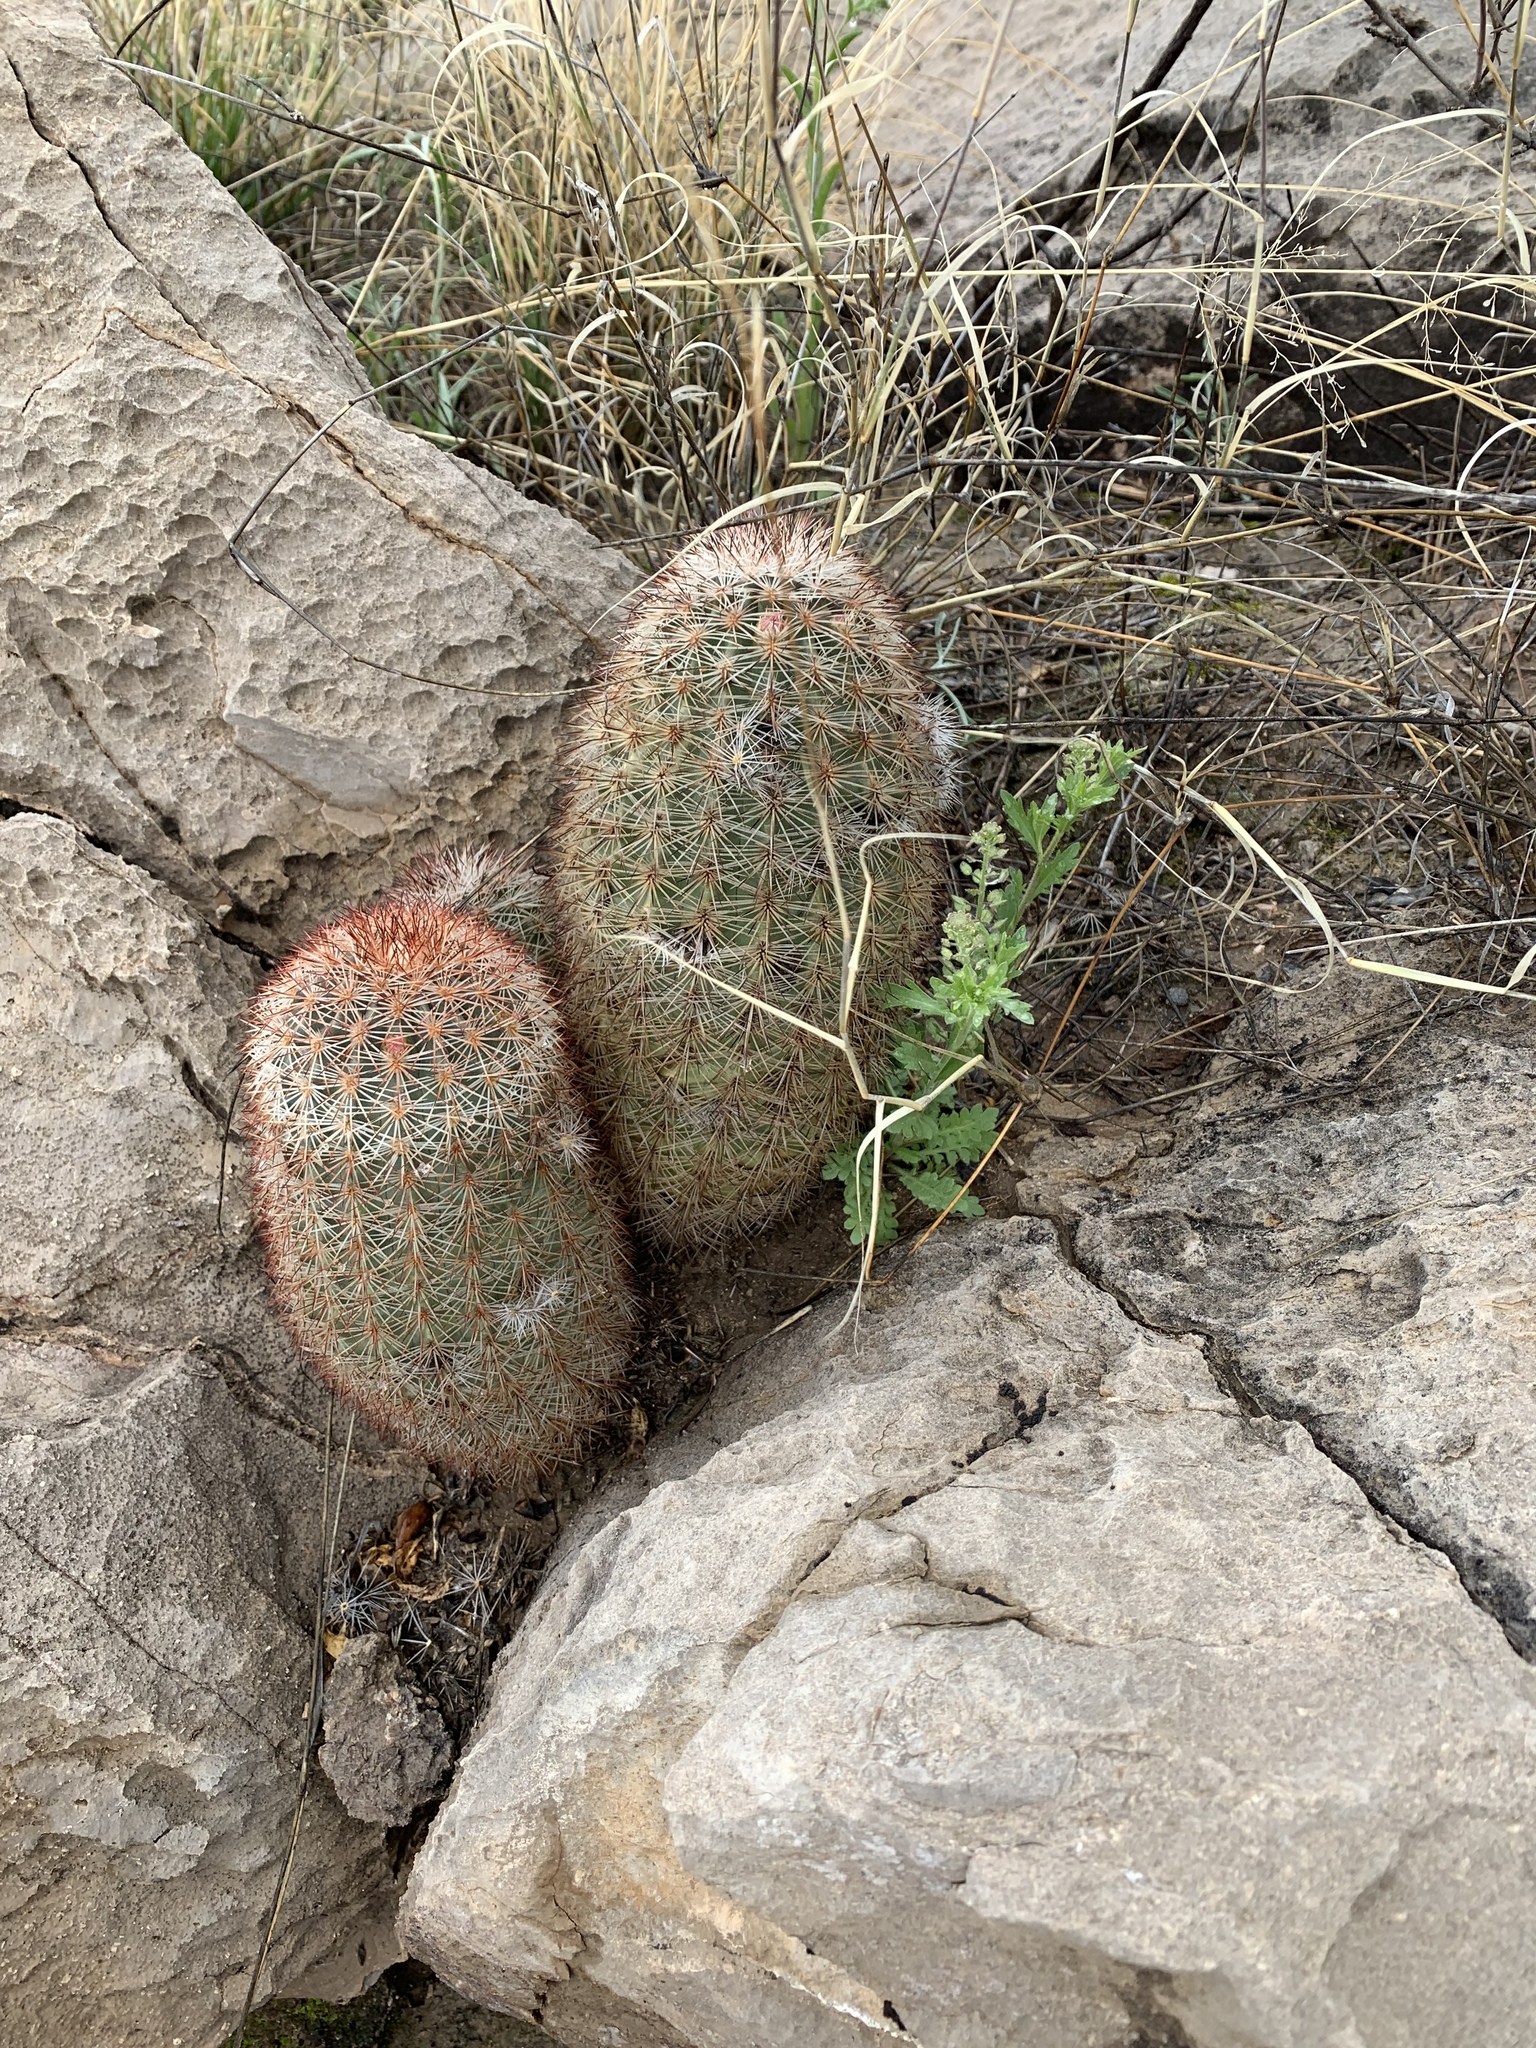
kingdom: Plantae
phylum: Tracheophyta
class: Magnoliopsida
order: Caryophyllales
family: Cactaceae
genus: Echinocereus
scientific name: Echinocereus dasyacanthus
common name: Spiny hedgehog cactus
